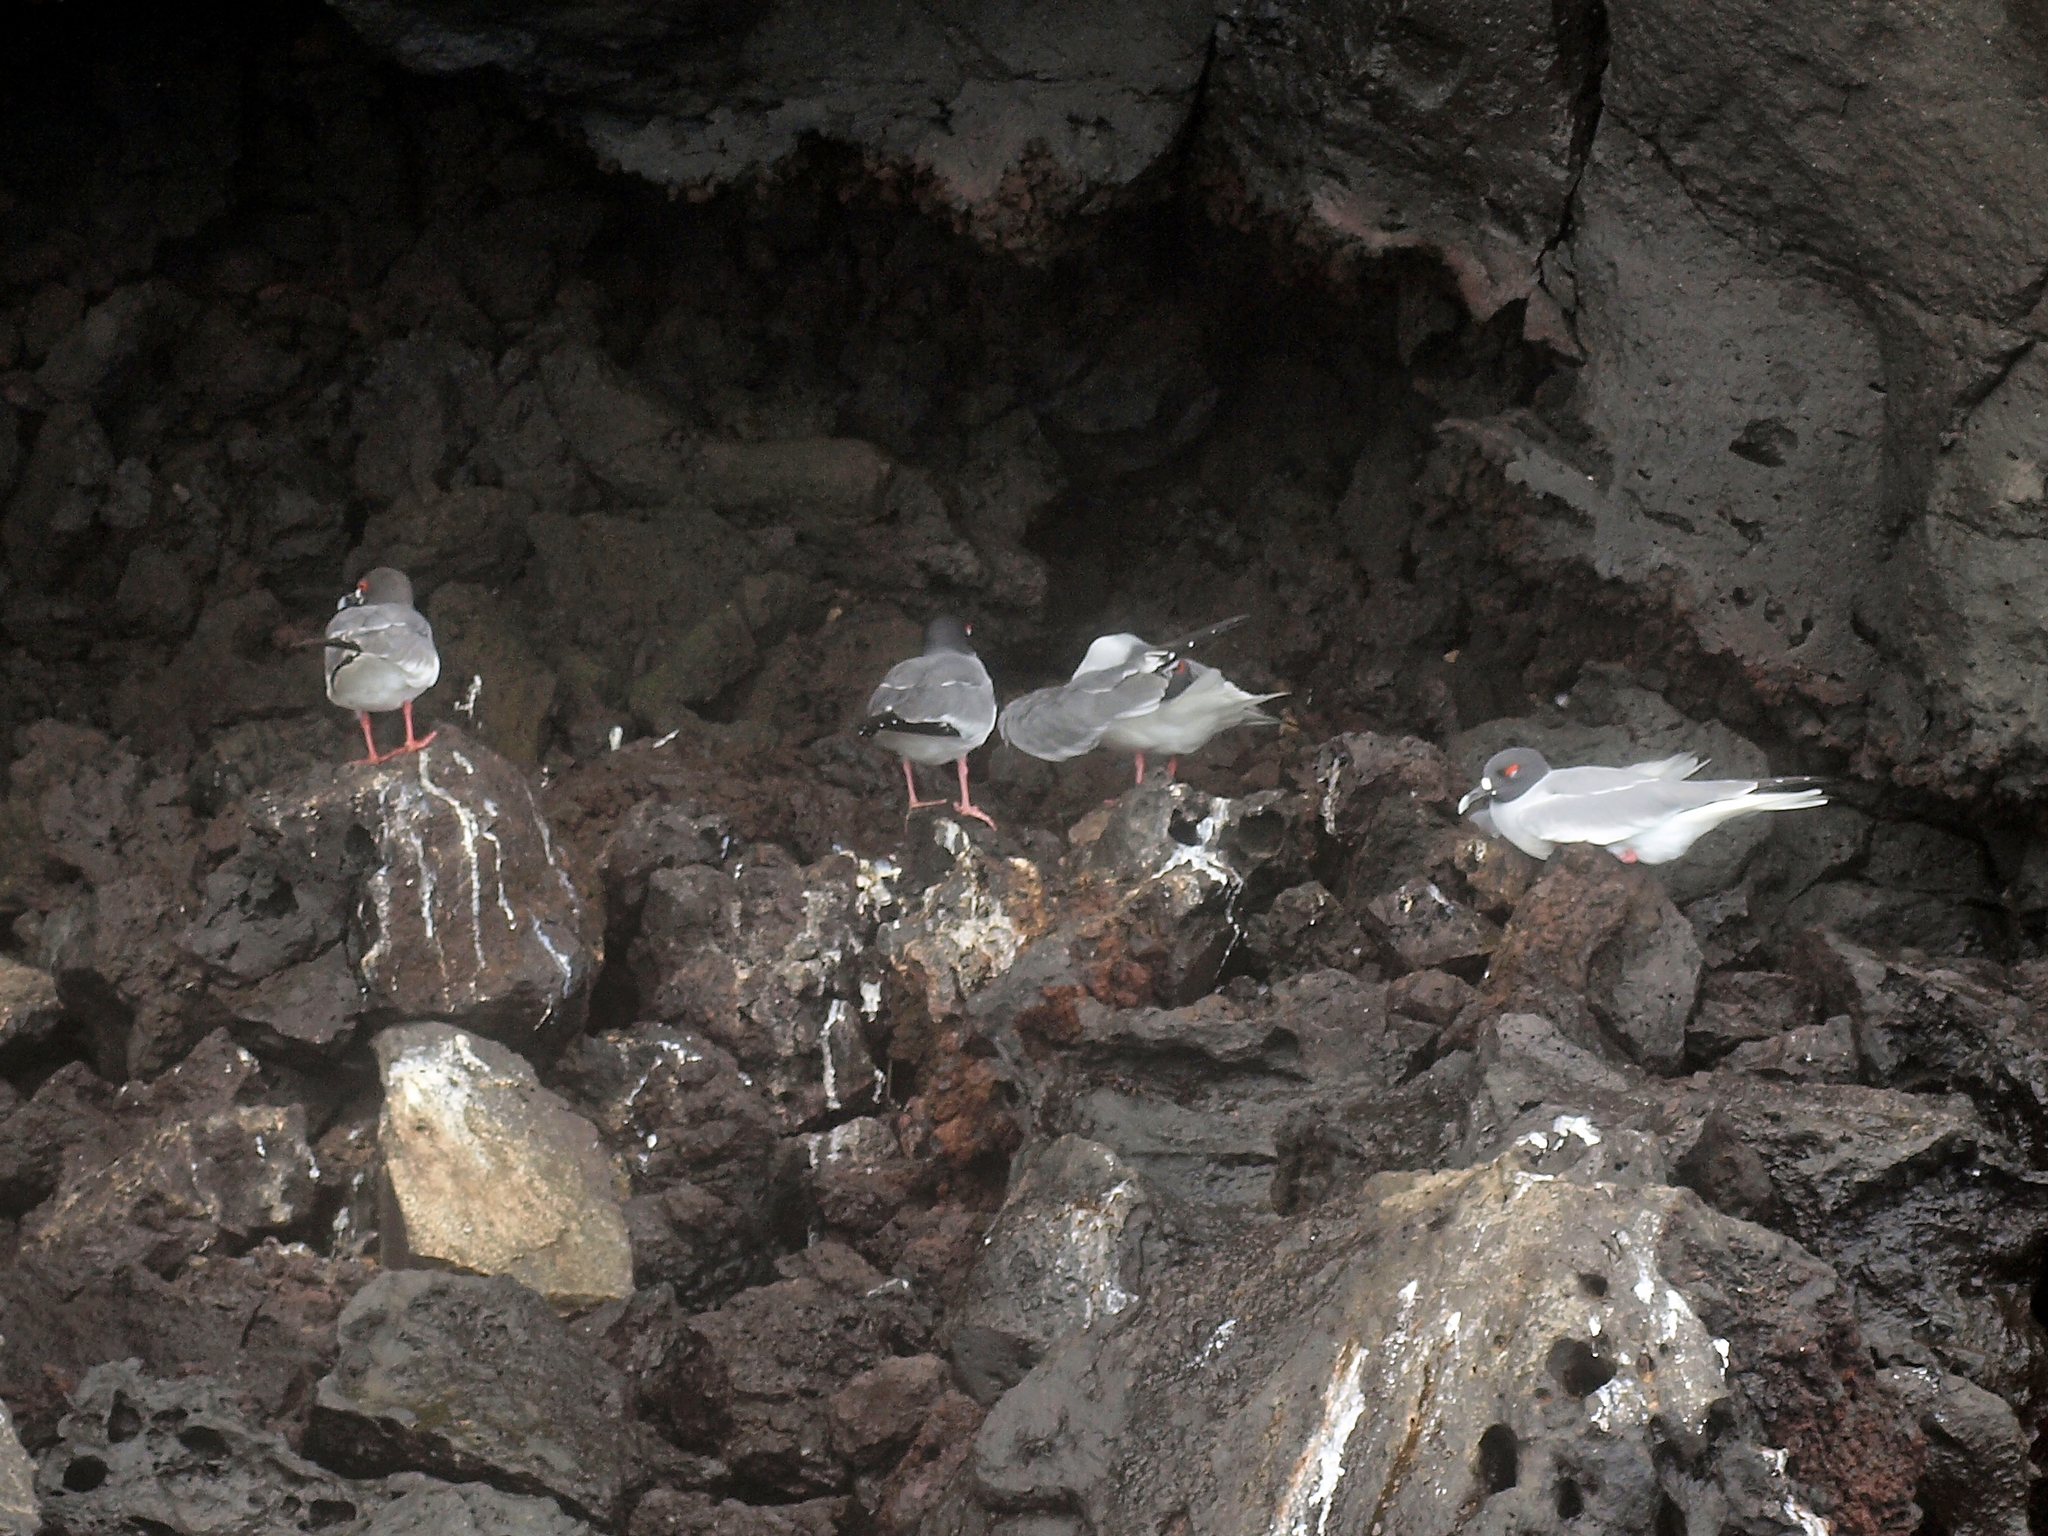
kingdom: Animalia
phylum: Chordata
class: Aves
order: Charadriiformes
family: Laridae
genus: Creagrus
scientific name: Creagrus furcatus
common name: Swallow-tailed gull
